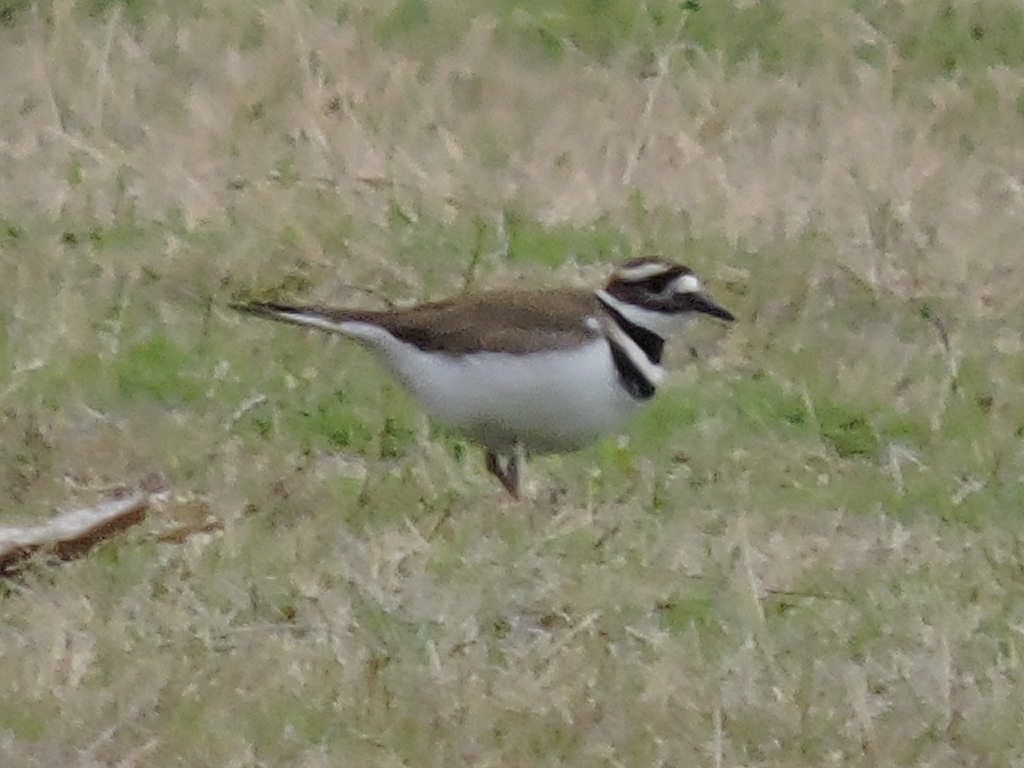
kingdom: Animalia
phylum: Chordata
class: Aves
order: Charadriiformes
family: Charadriidae
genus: Charadrius
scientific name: Charadrius vociferus
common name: Killdeer
